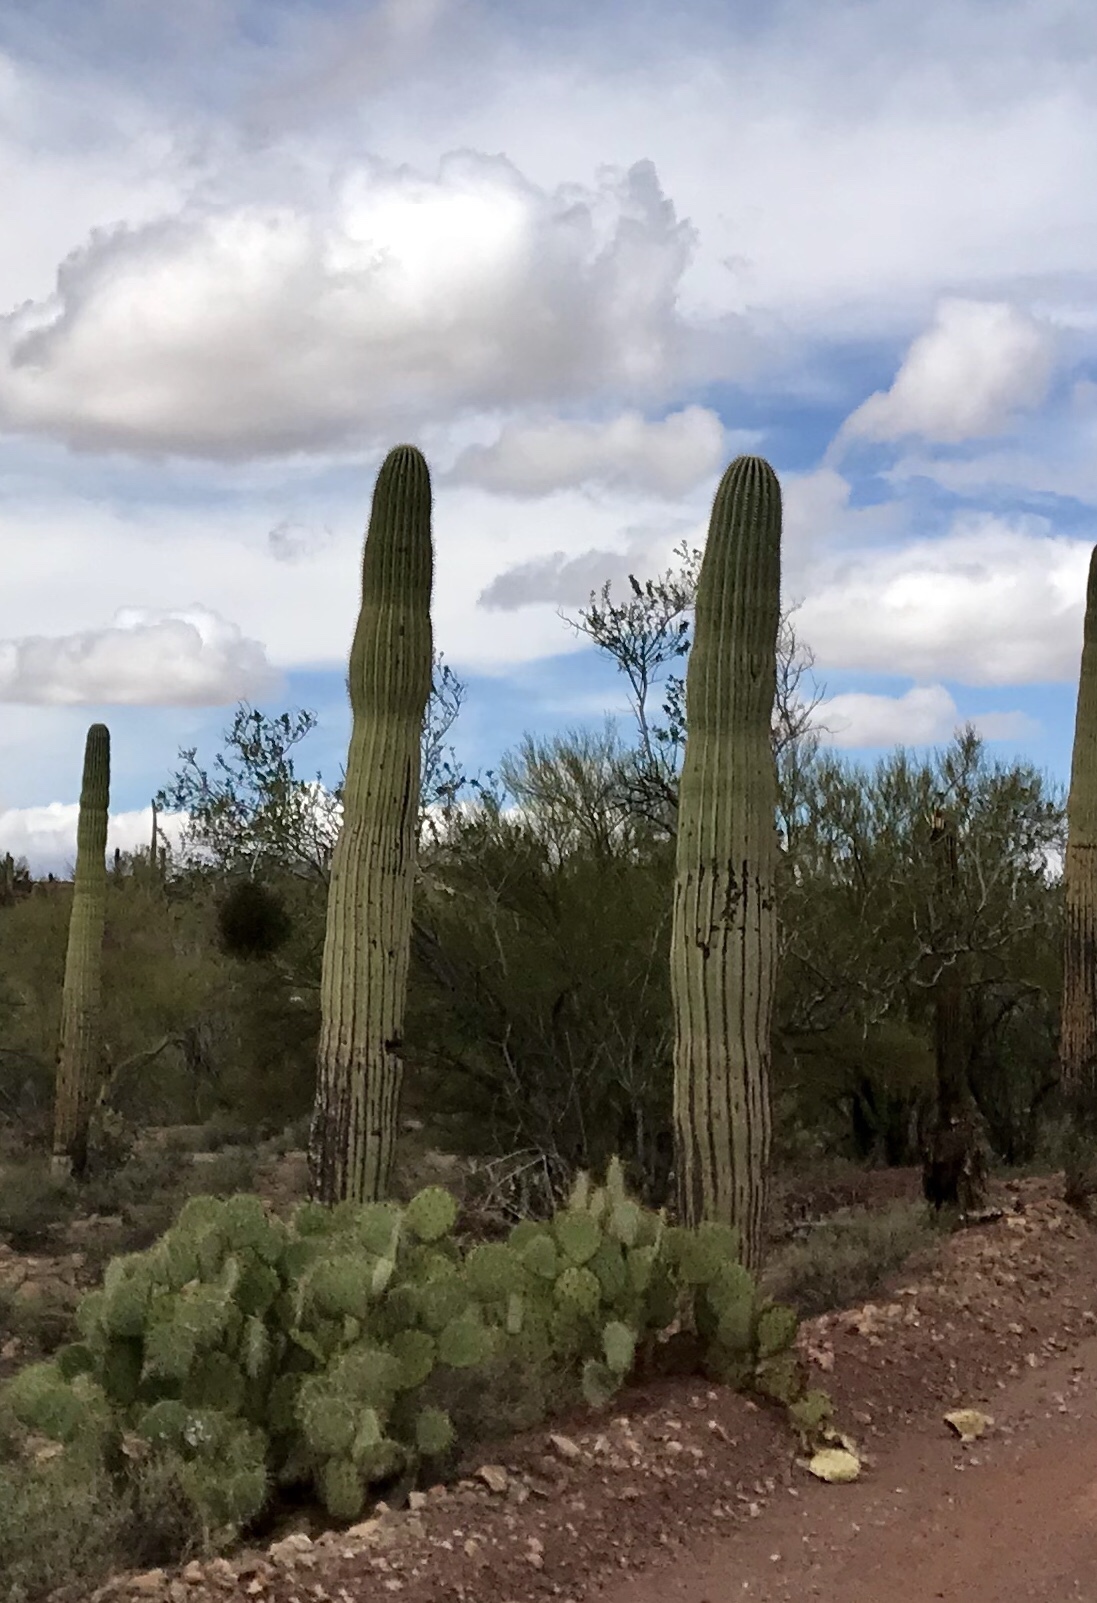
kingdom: Plantae
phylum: Tracheophyta
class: Magnoliopsida
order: Caryophyllales
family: Cactaceae
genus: Carnegiea
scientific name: Carnegiea gigantea
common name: Saguaro
